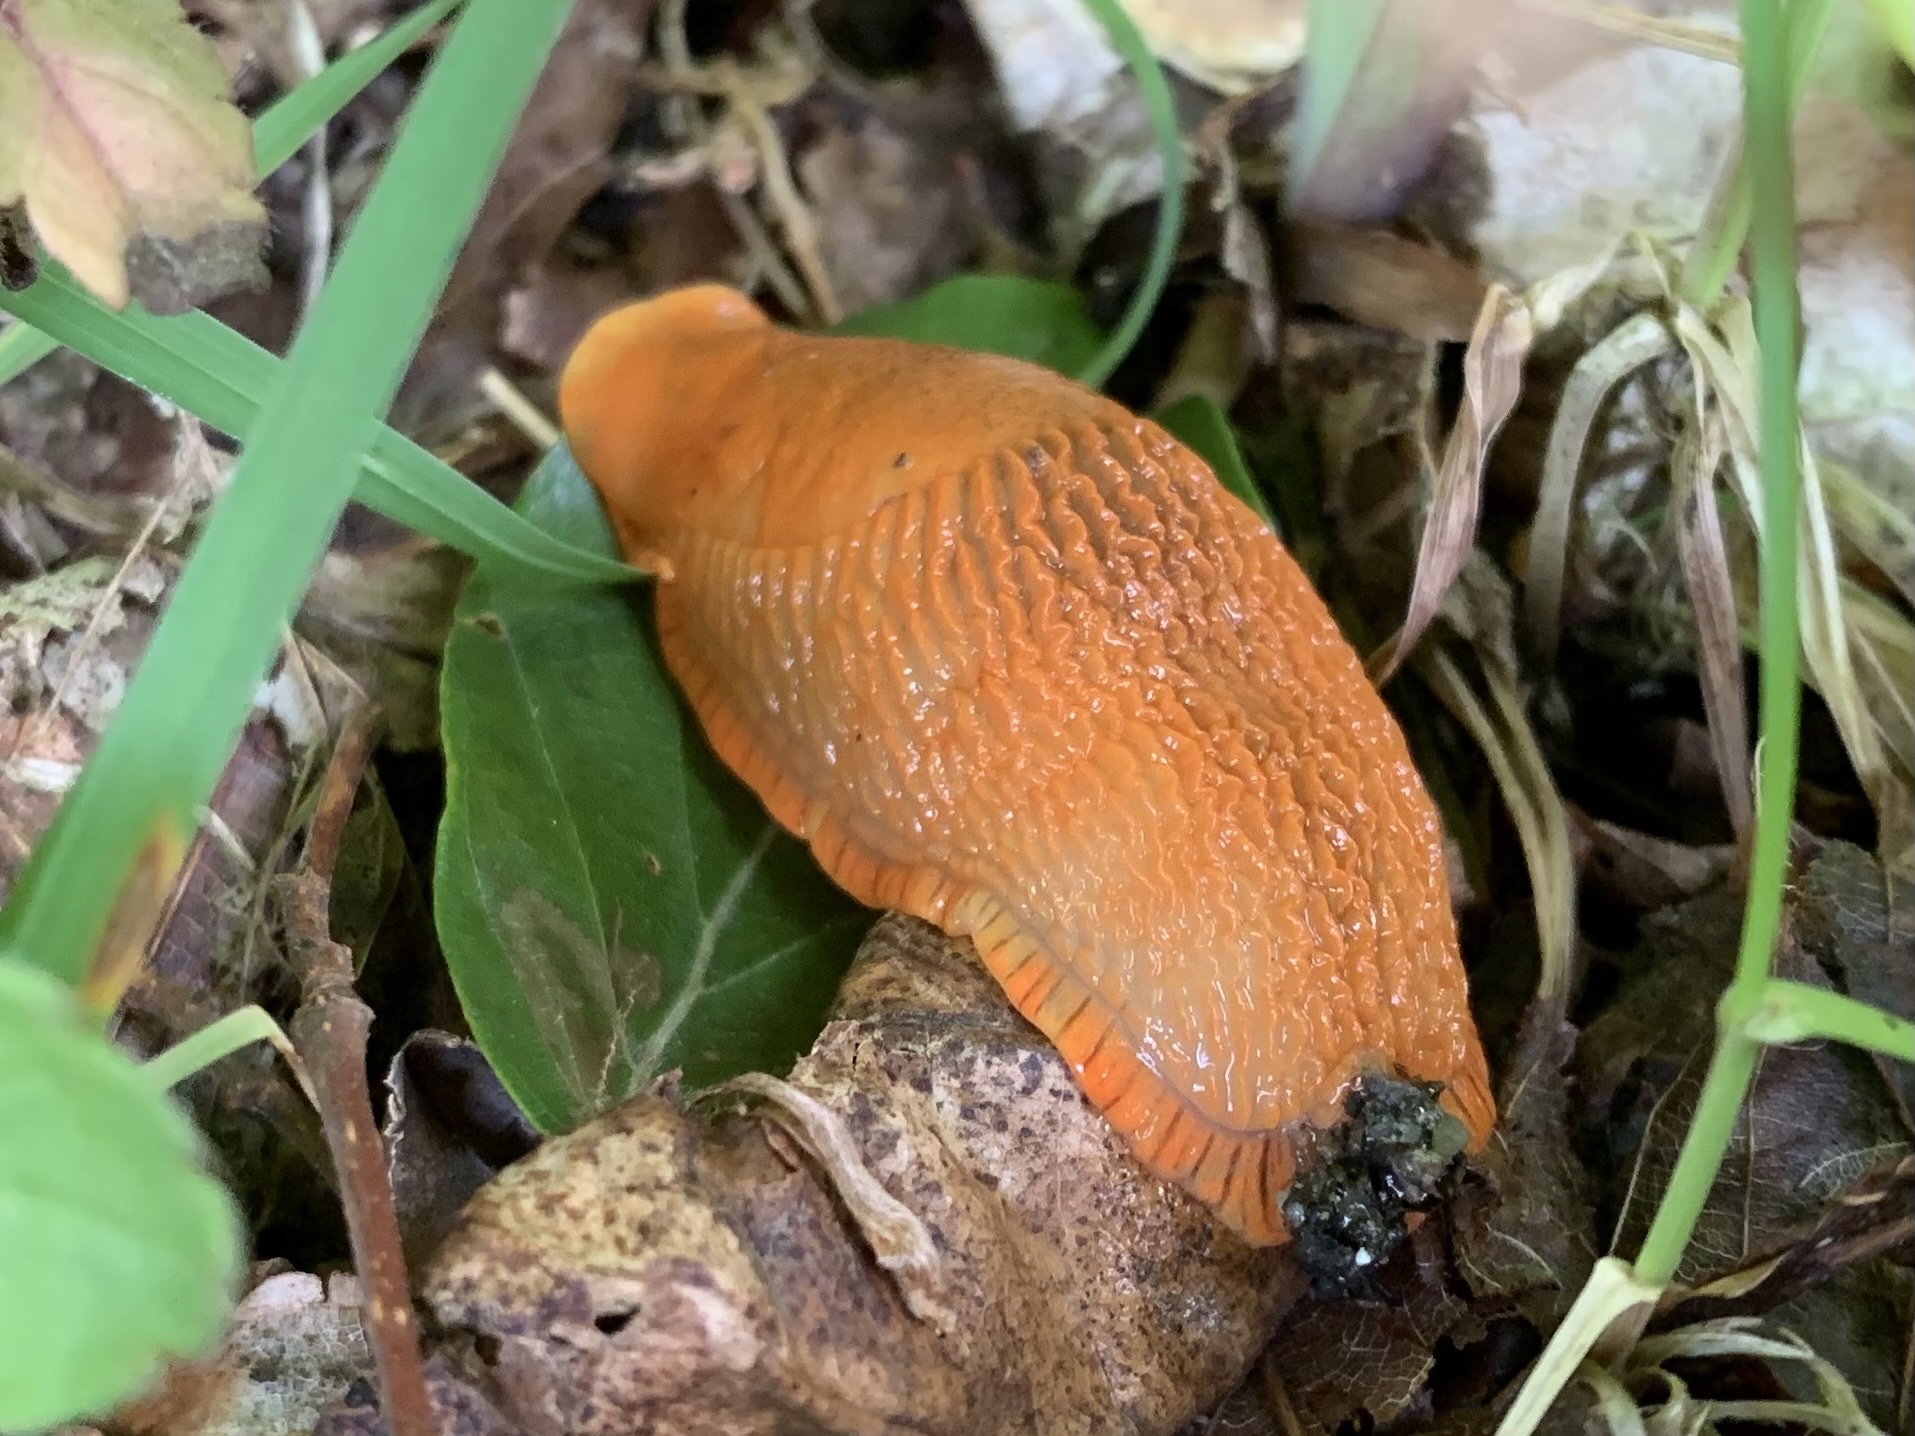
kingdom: Animalia
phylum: Mollusca
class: Gastropoda
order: Stylommatophora
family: Arionidae
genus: Arion
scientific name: Arion vulgaris
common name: Lusitanian slug
